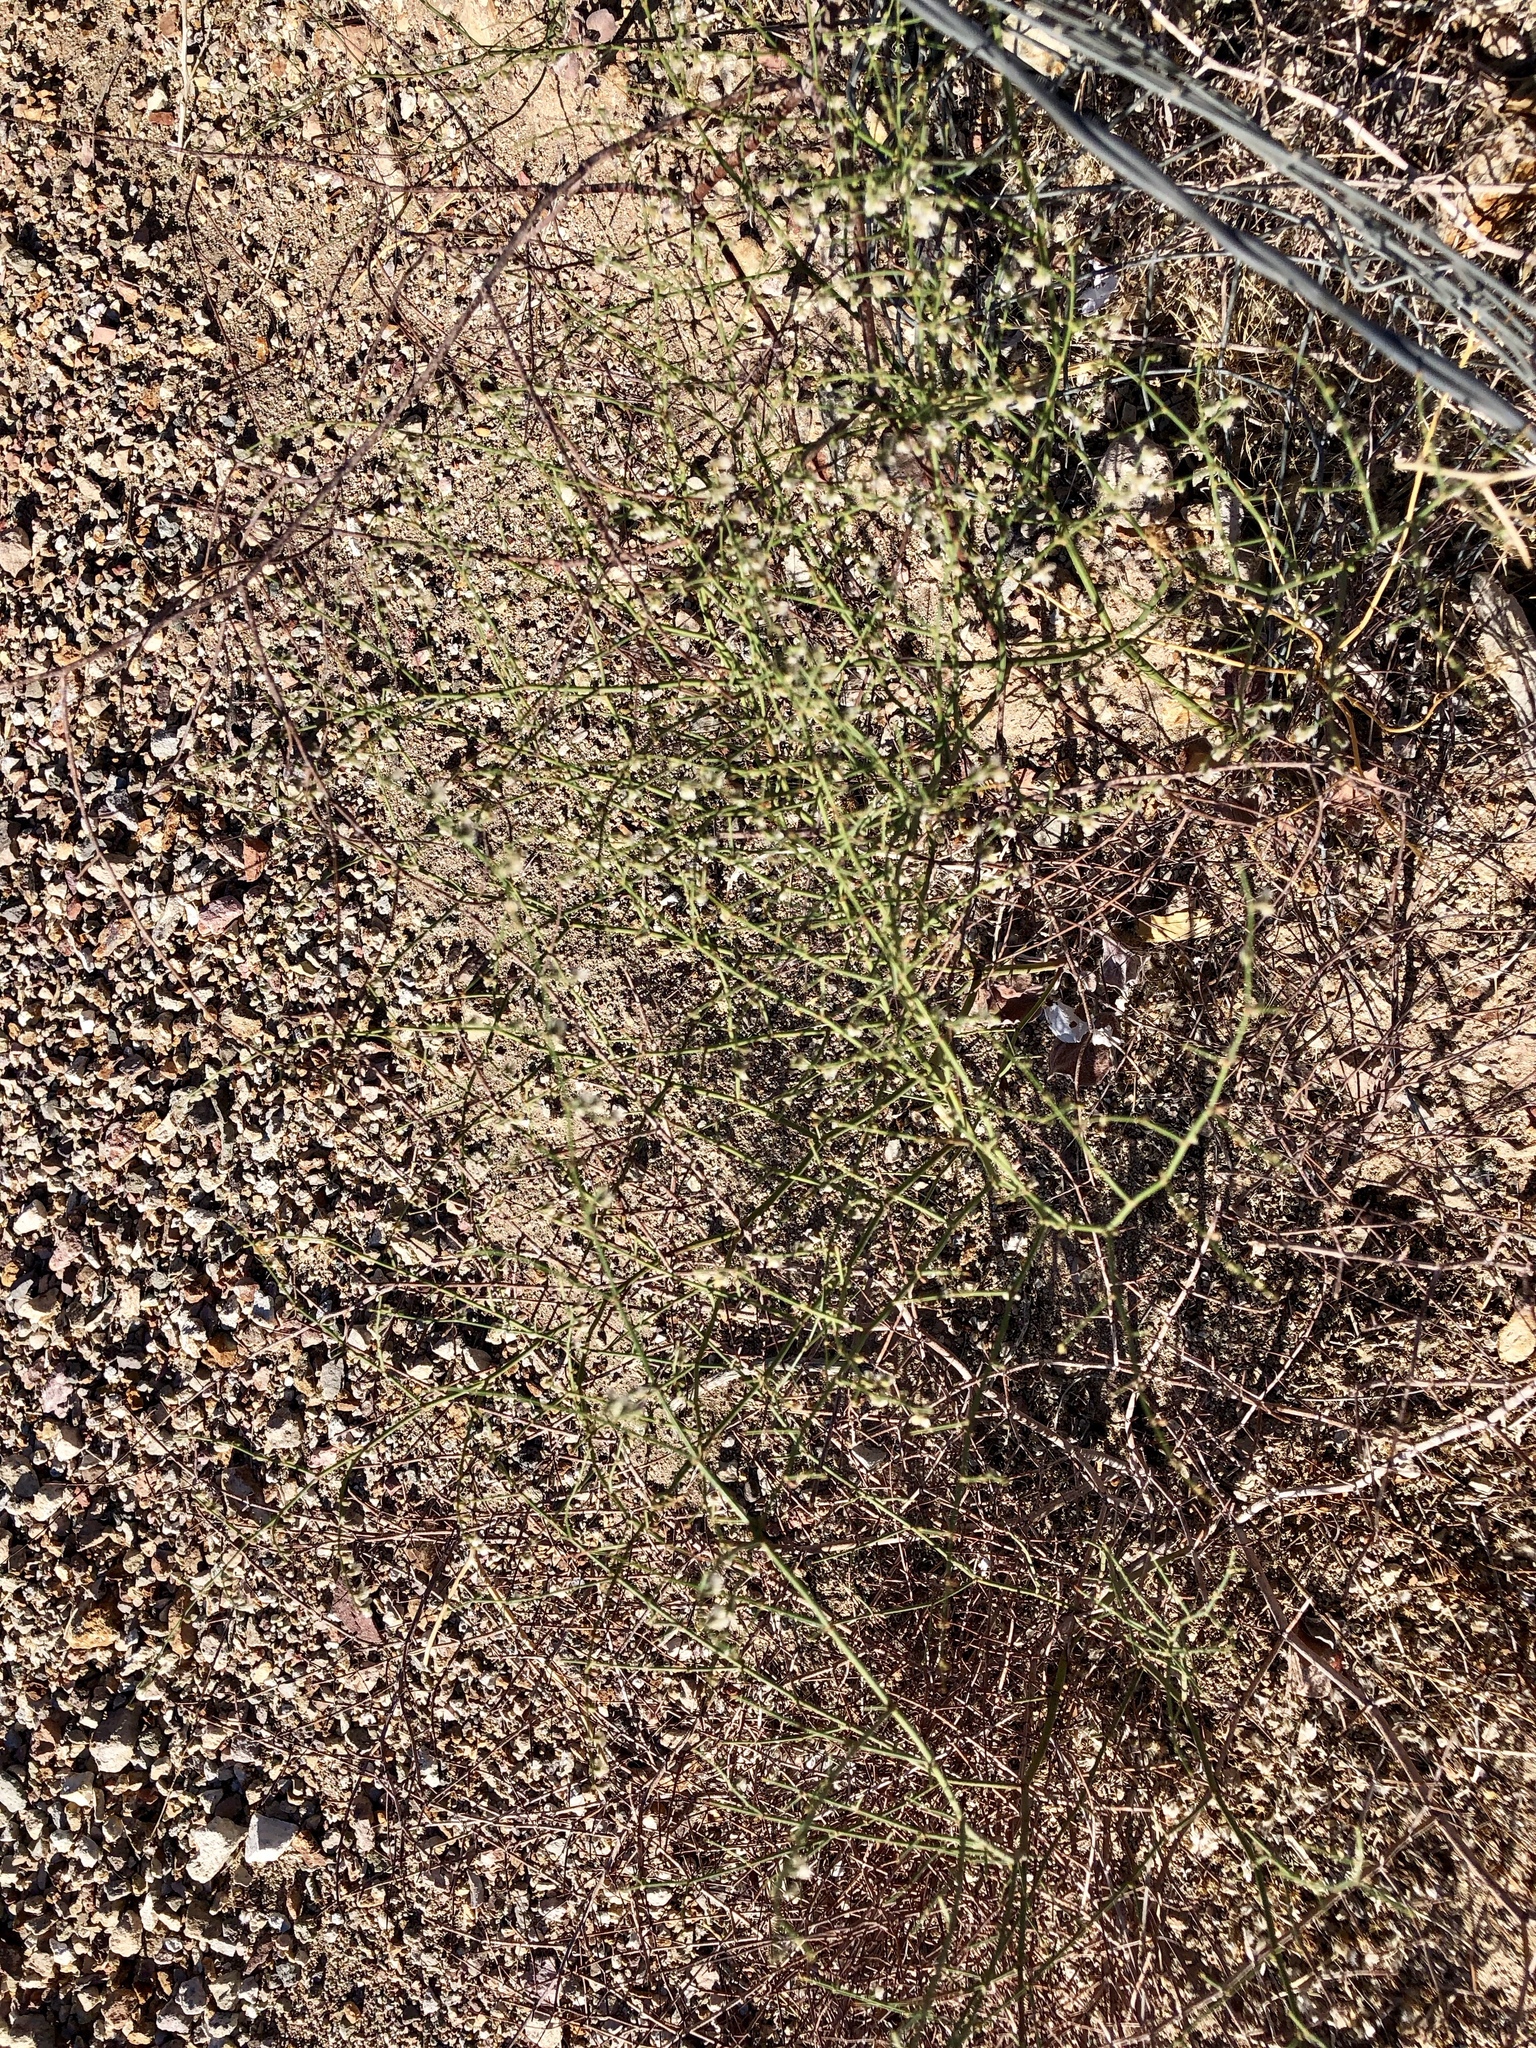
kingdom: Plantae
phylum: Tracheophyta
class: Magnoliopsida
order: Caryophyllales
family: Polygonaceae
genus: Eriogonum
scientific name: Eriogonum deflexum
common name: Skeleton-weed
